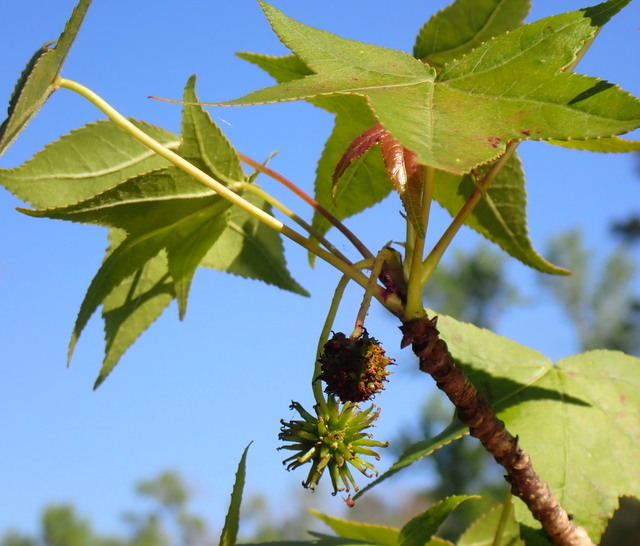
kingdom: Plantae
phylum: Tracheophyta
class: Magnoliopsida
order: Saxifragales
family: Altingiaceae
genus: Liquidambar
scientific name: Liquidambar styraciflua
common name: Sweet gum
